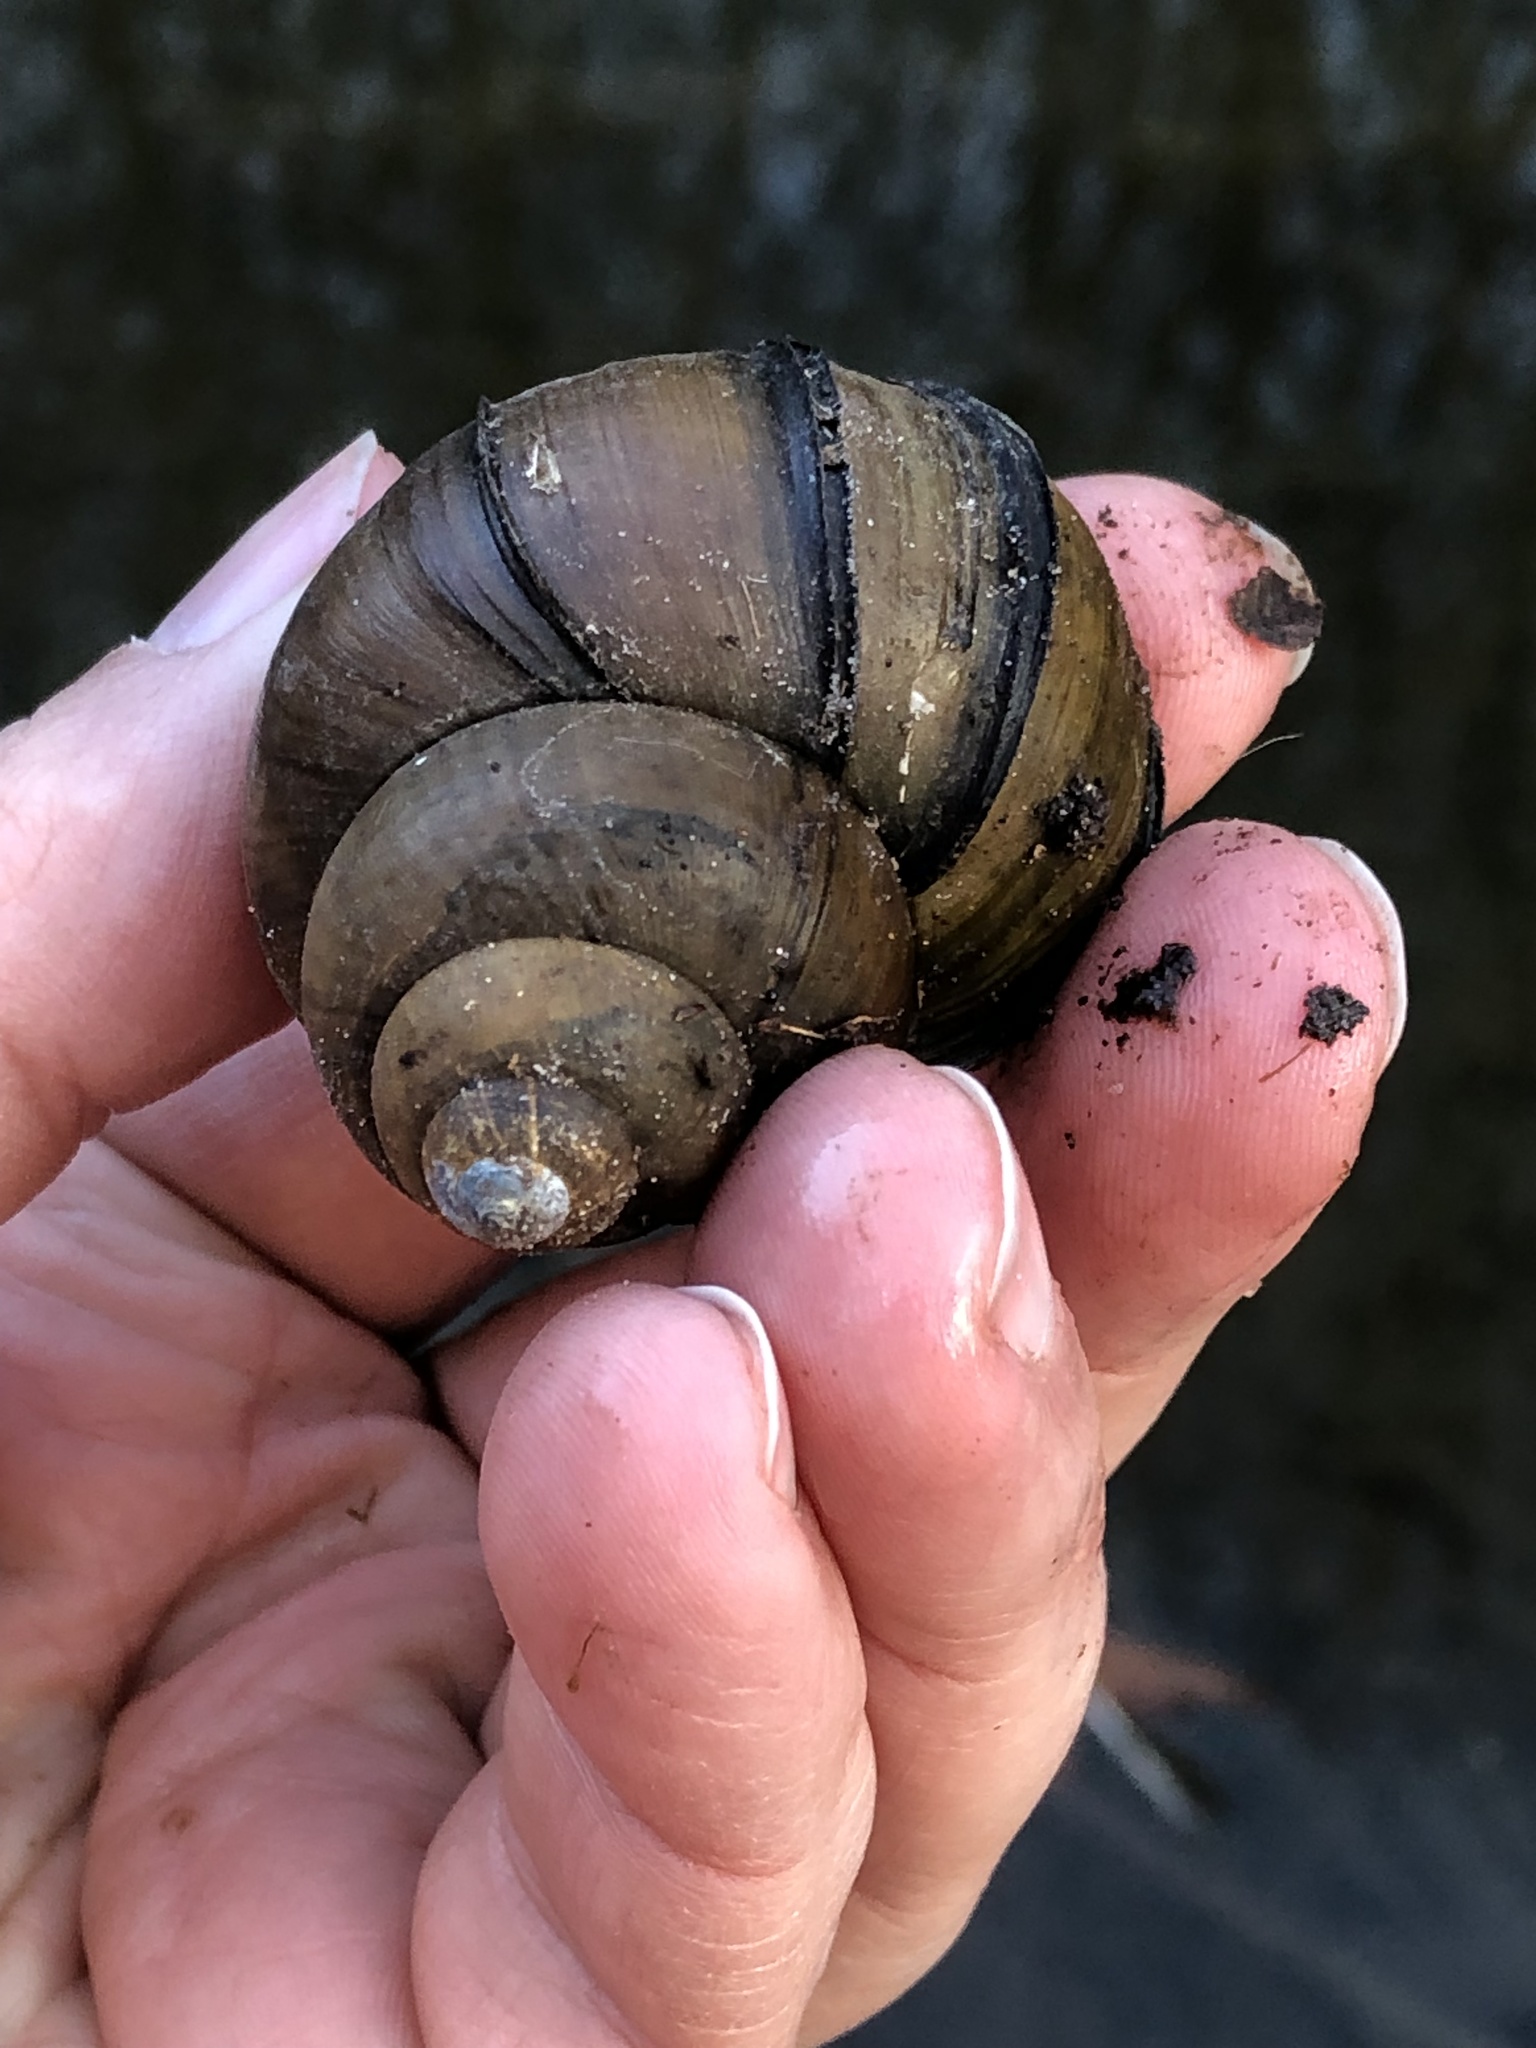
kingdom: Animalia
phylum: Mollusca
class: Gastropoda
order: Architaenioglossa
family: Viviparidae
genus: Cipangopaludina
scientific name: Cipangopaludina chinensis
